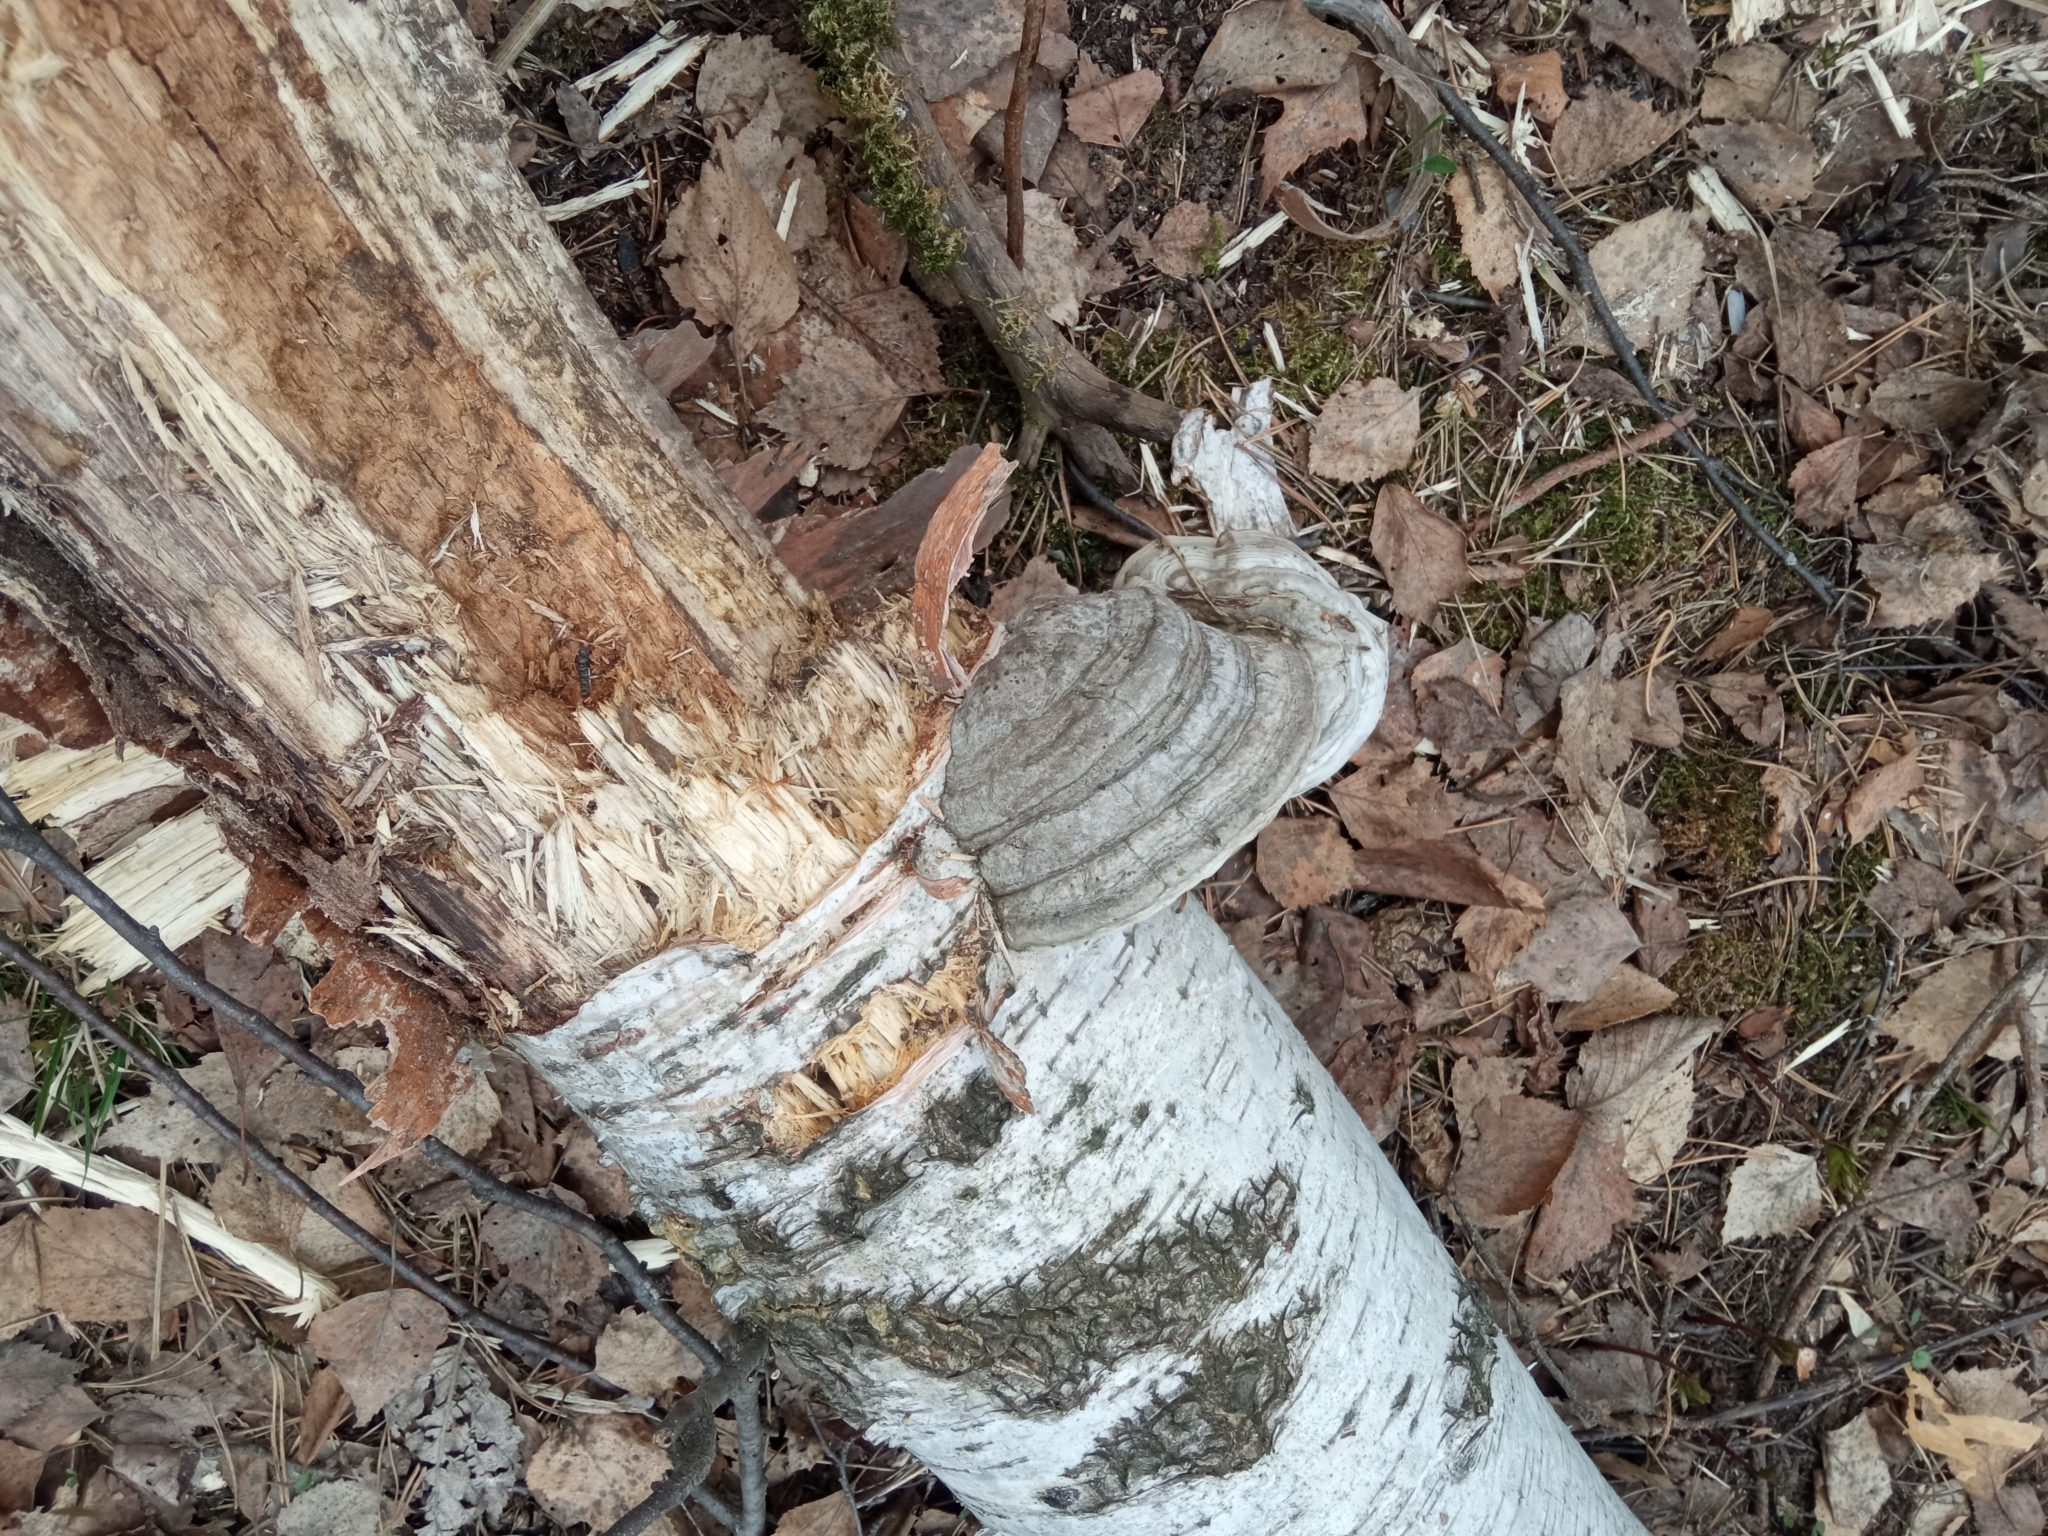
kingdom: Fungi
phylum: Basidiomycota
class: Agaricomycetes
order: Polyporales
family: Polyporaceae
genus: Fomes
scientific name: Fomes fomentarius
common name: Hoof fungus
